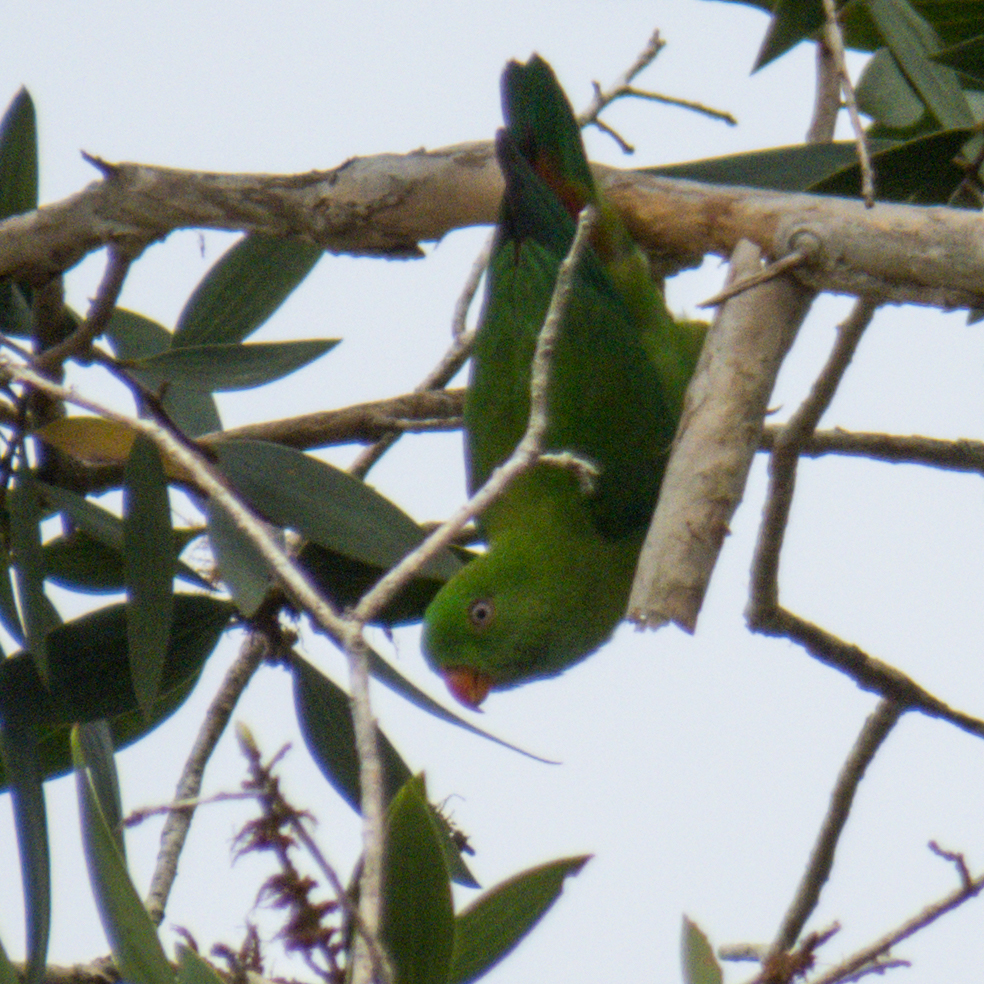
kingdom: Animalia
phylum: Chordata
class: Aves
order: Psittaciformes
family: Psittacidae
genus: Loriculus
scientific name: Loriculus vernalis
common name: Vernal hanging parrot
